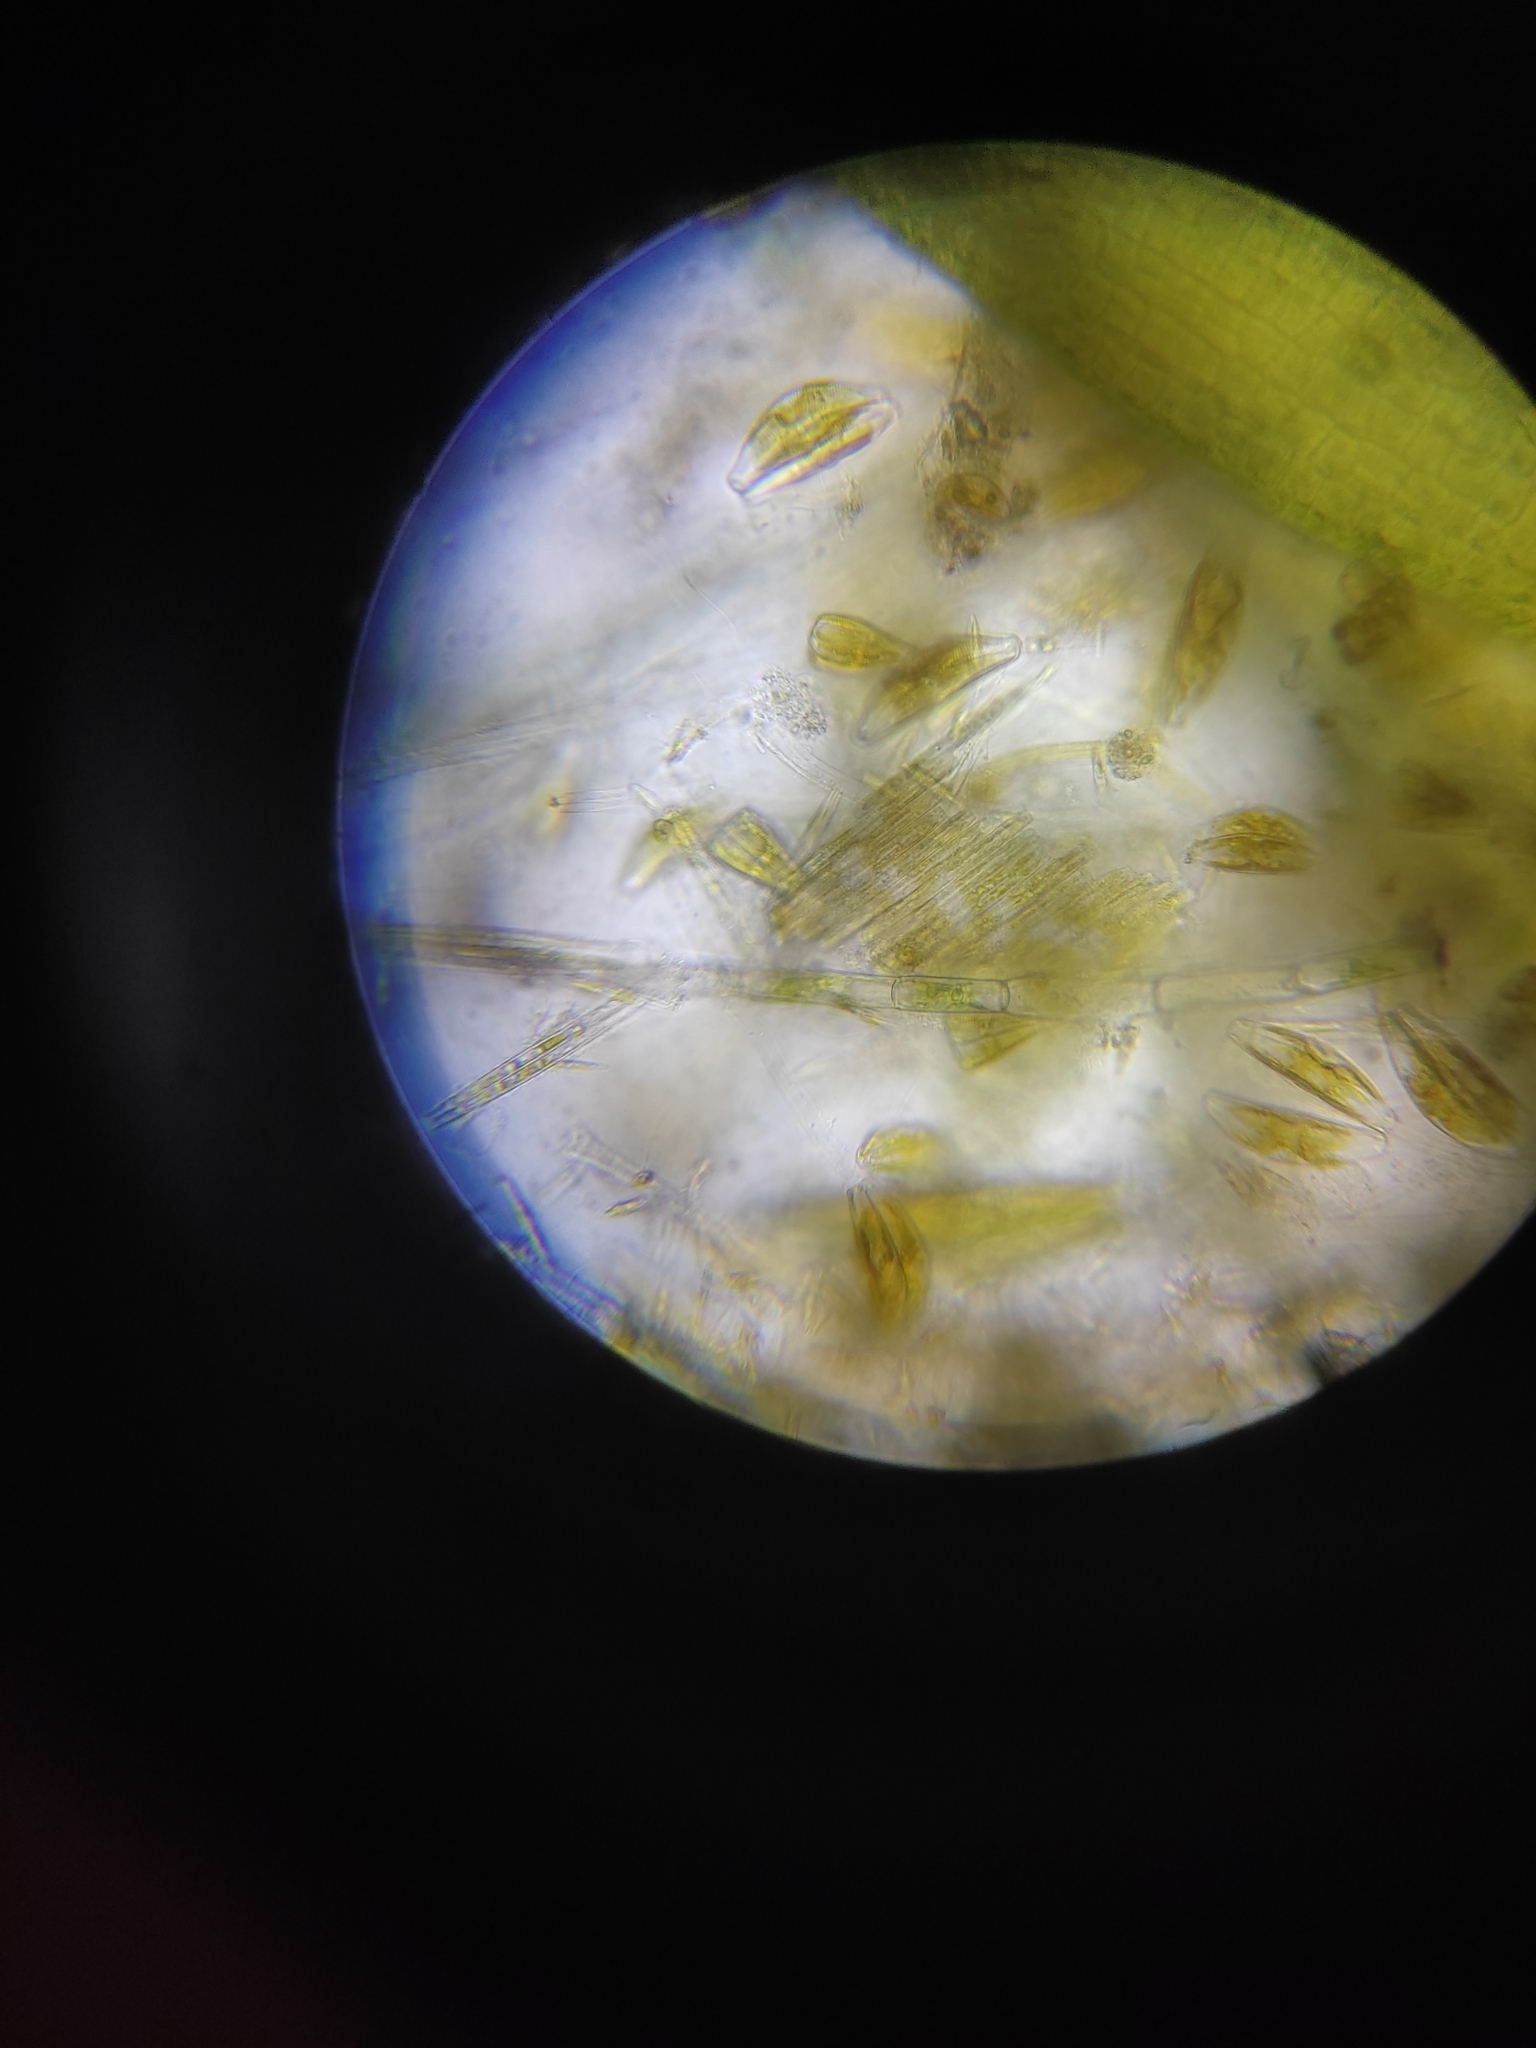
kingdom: Chromista
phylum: Ochrophyta
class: Bacillariophyceae
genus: Vibrio
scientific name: Vibrio paxillifer
